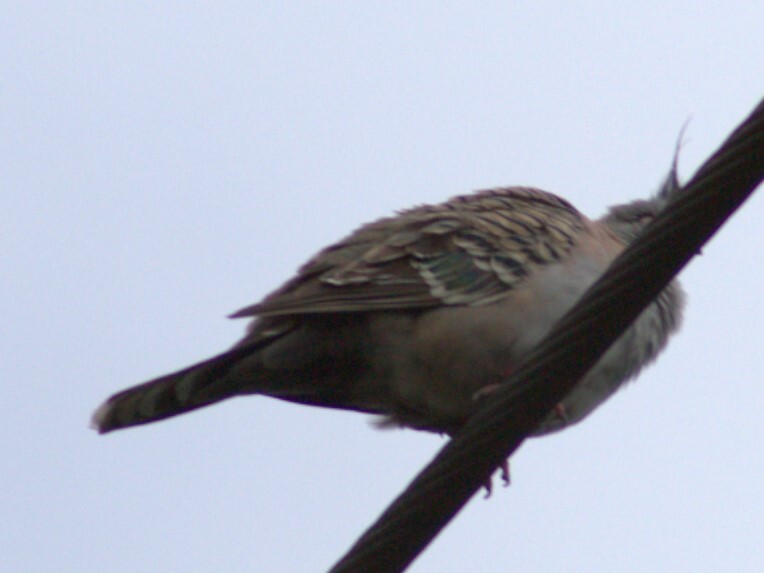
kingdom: Animalia
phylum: Chordata
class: Aves
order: Columbiformes
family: Columbidae
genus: Ocyphaps
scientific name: Ocyphaps lophotes
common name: Crested pigeon
